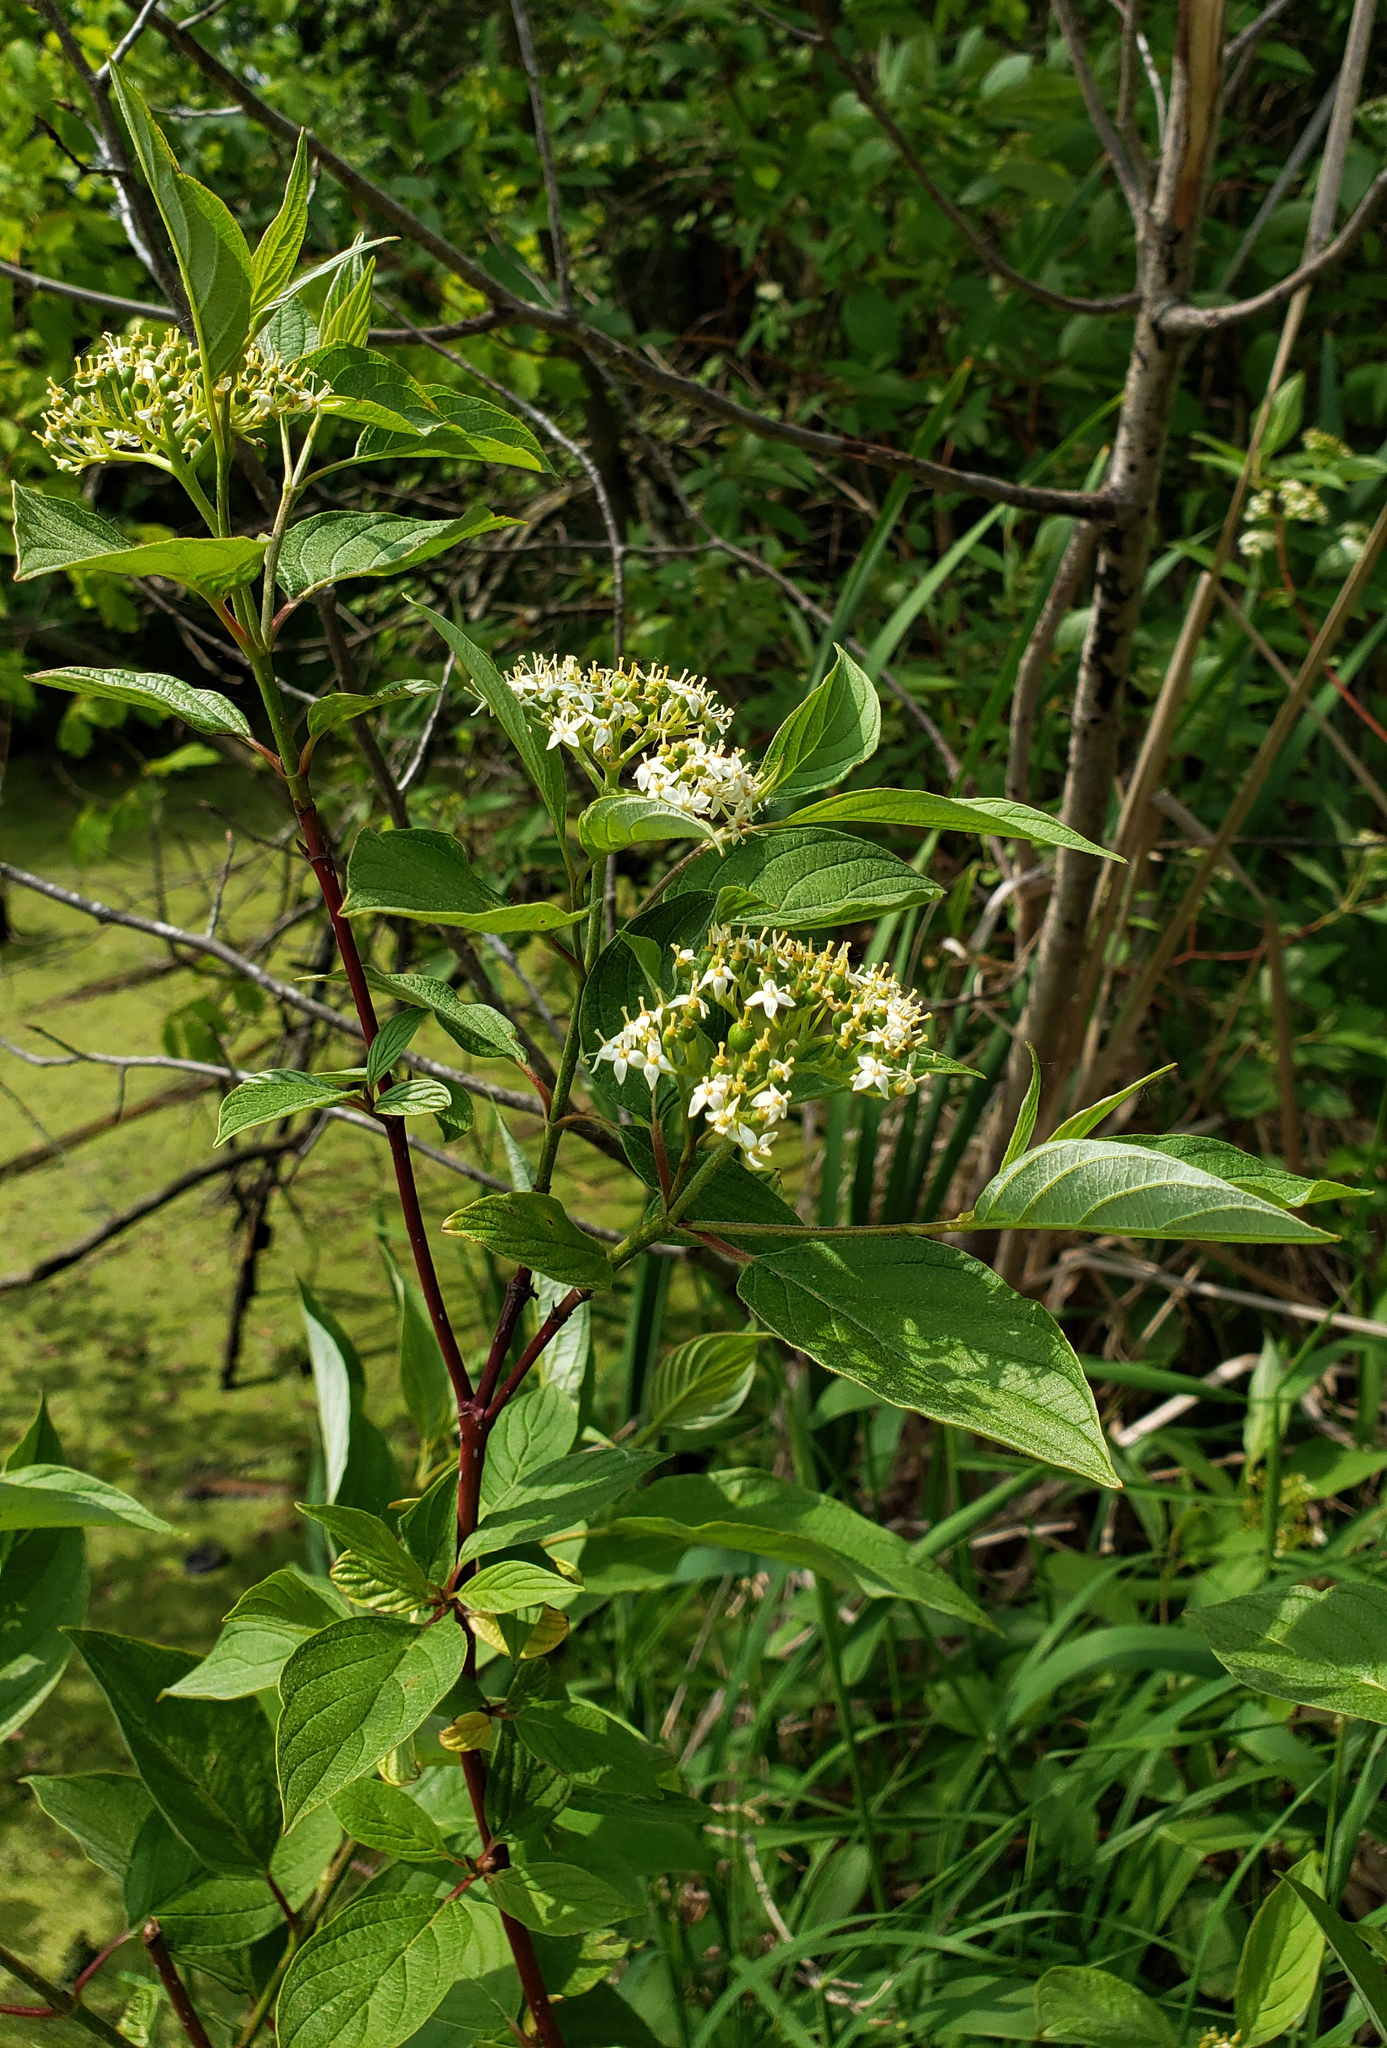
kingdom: Plantae
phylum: Tracheophyta
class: Magnoliopsida
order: Cornales
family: Cornaceae
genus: Cornus
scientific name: Cornus sericea
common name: Red-osier dogwood
